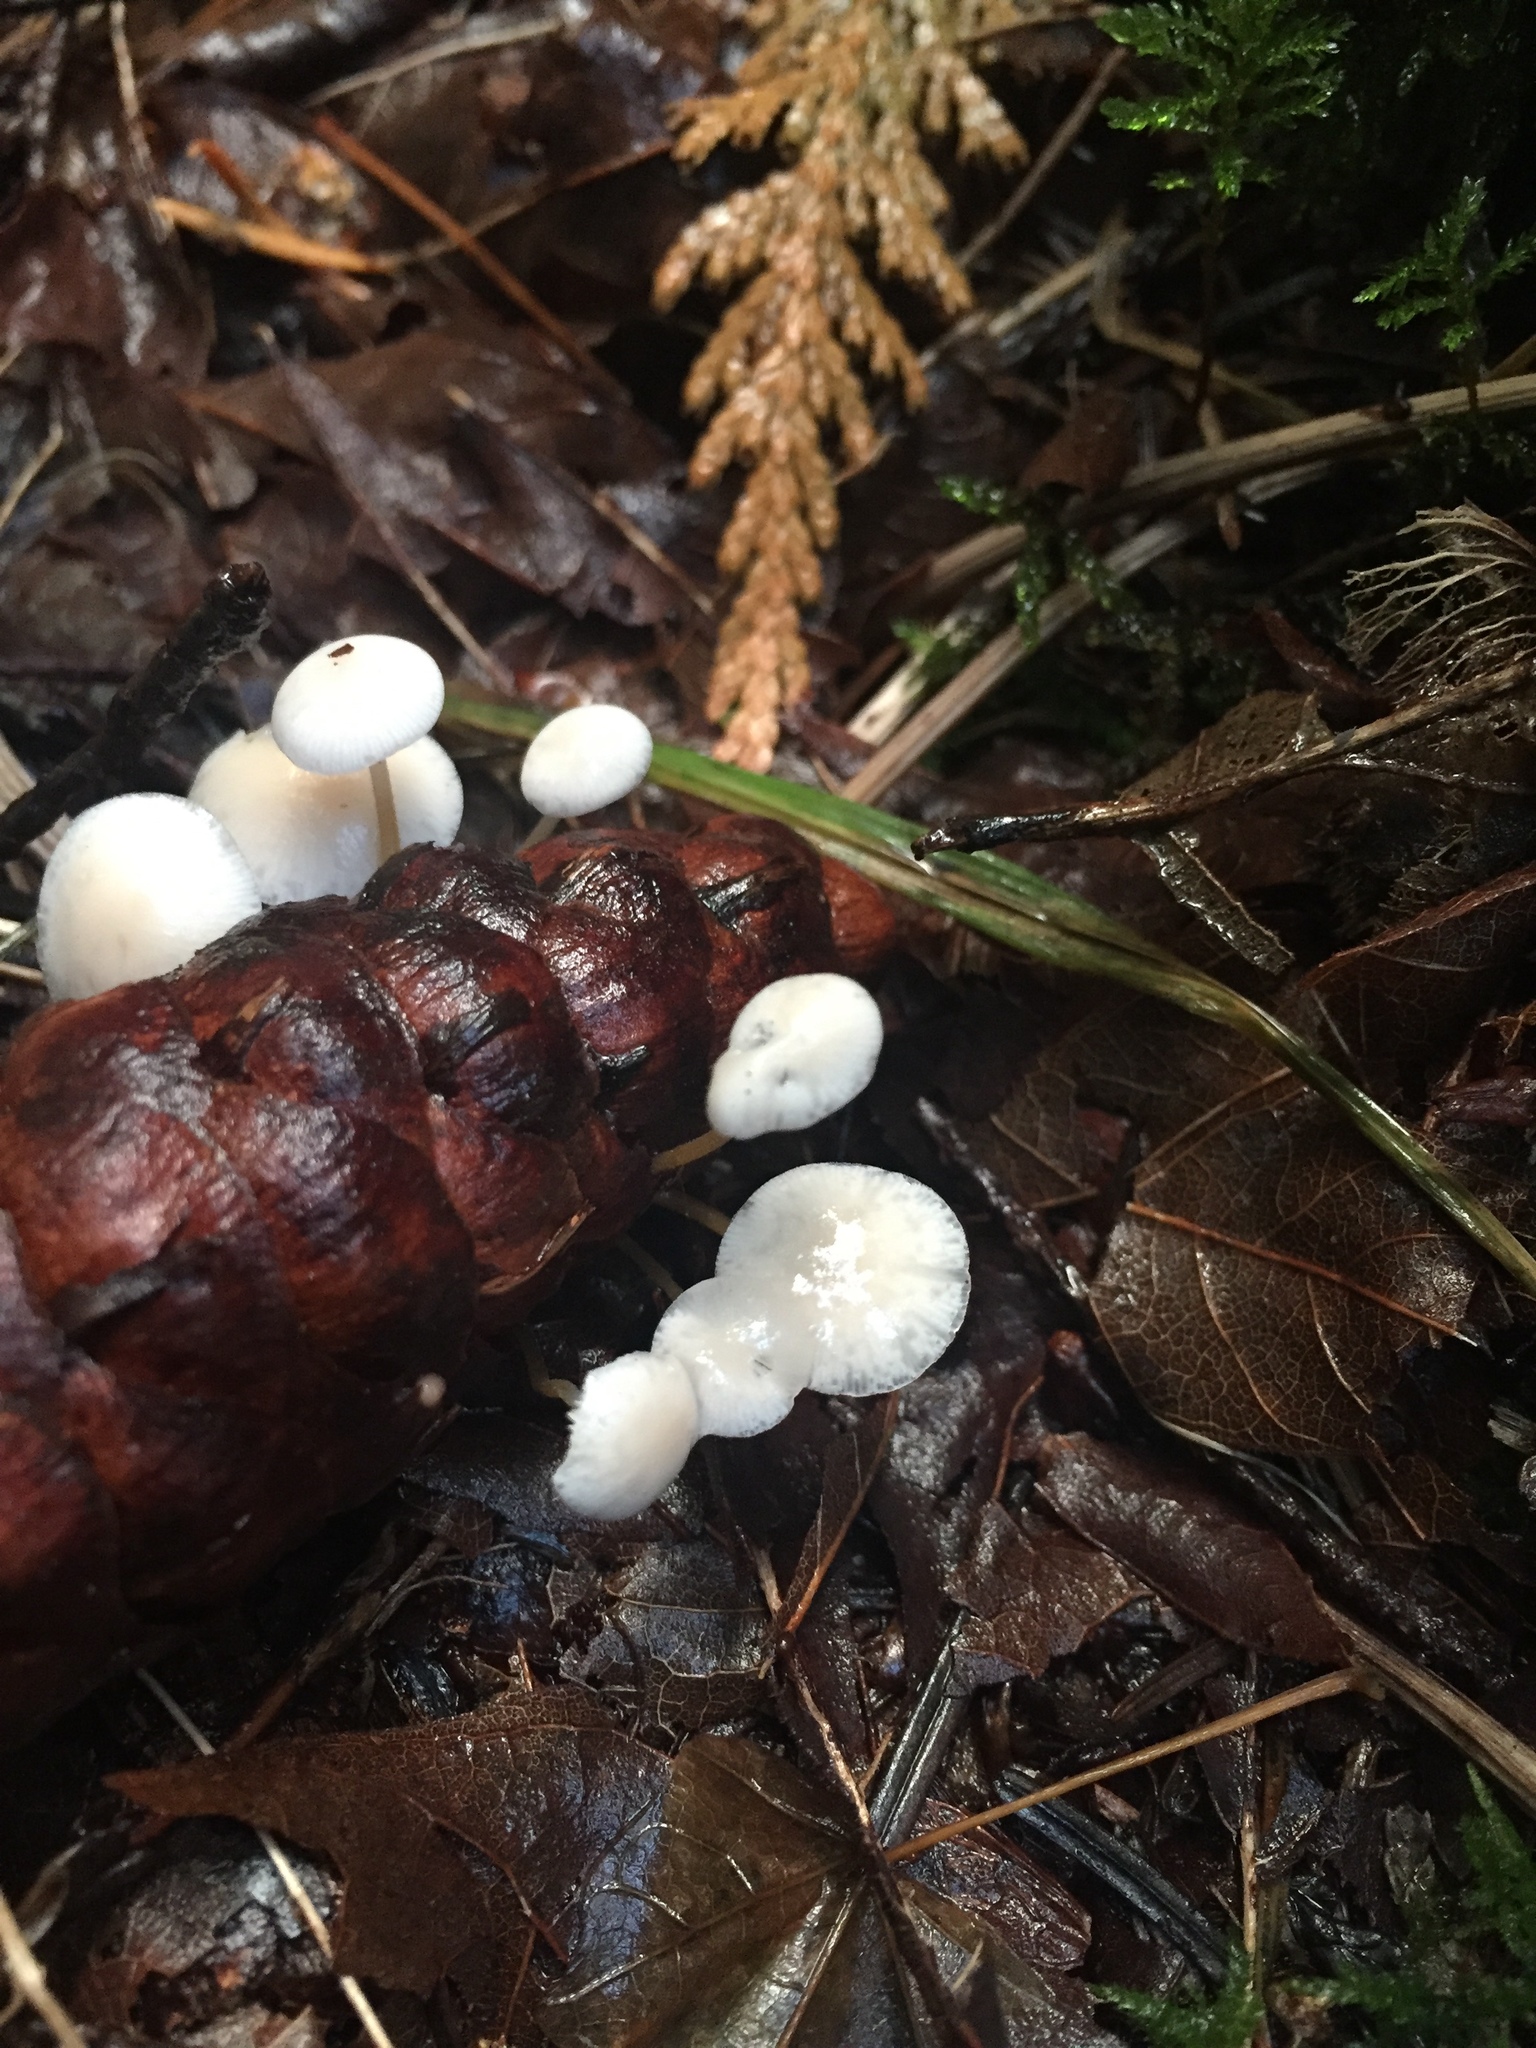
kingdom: Fungi
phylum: Basidiomycota
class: Agaricomycetes
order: Agaricales
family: Physalacriaceae
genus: Strobilurus
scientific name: Strobilurus trullisatus
